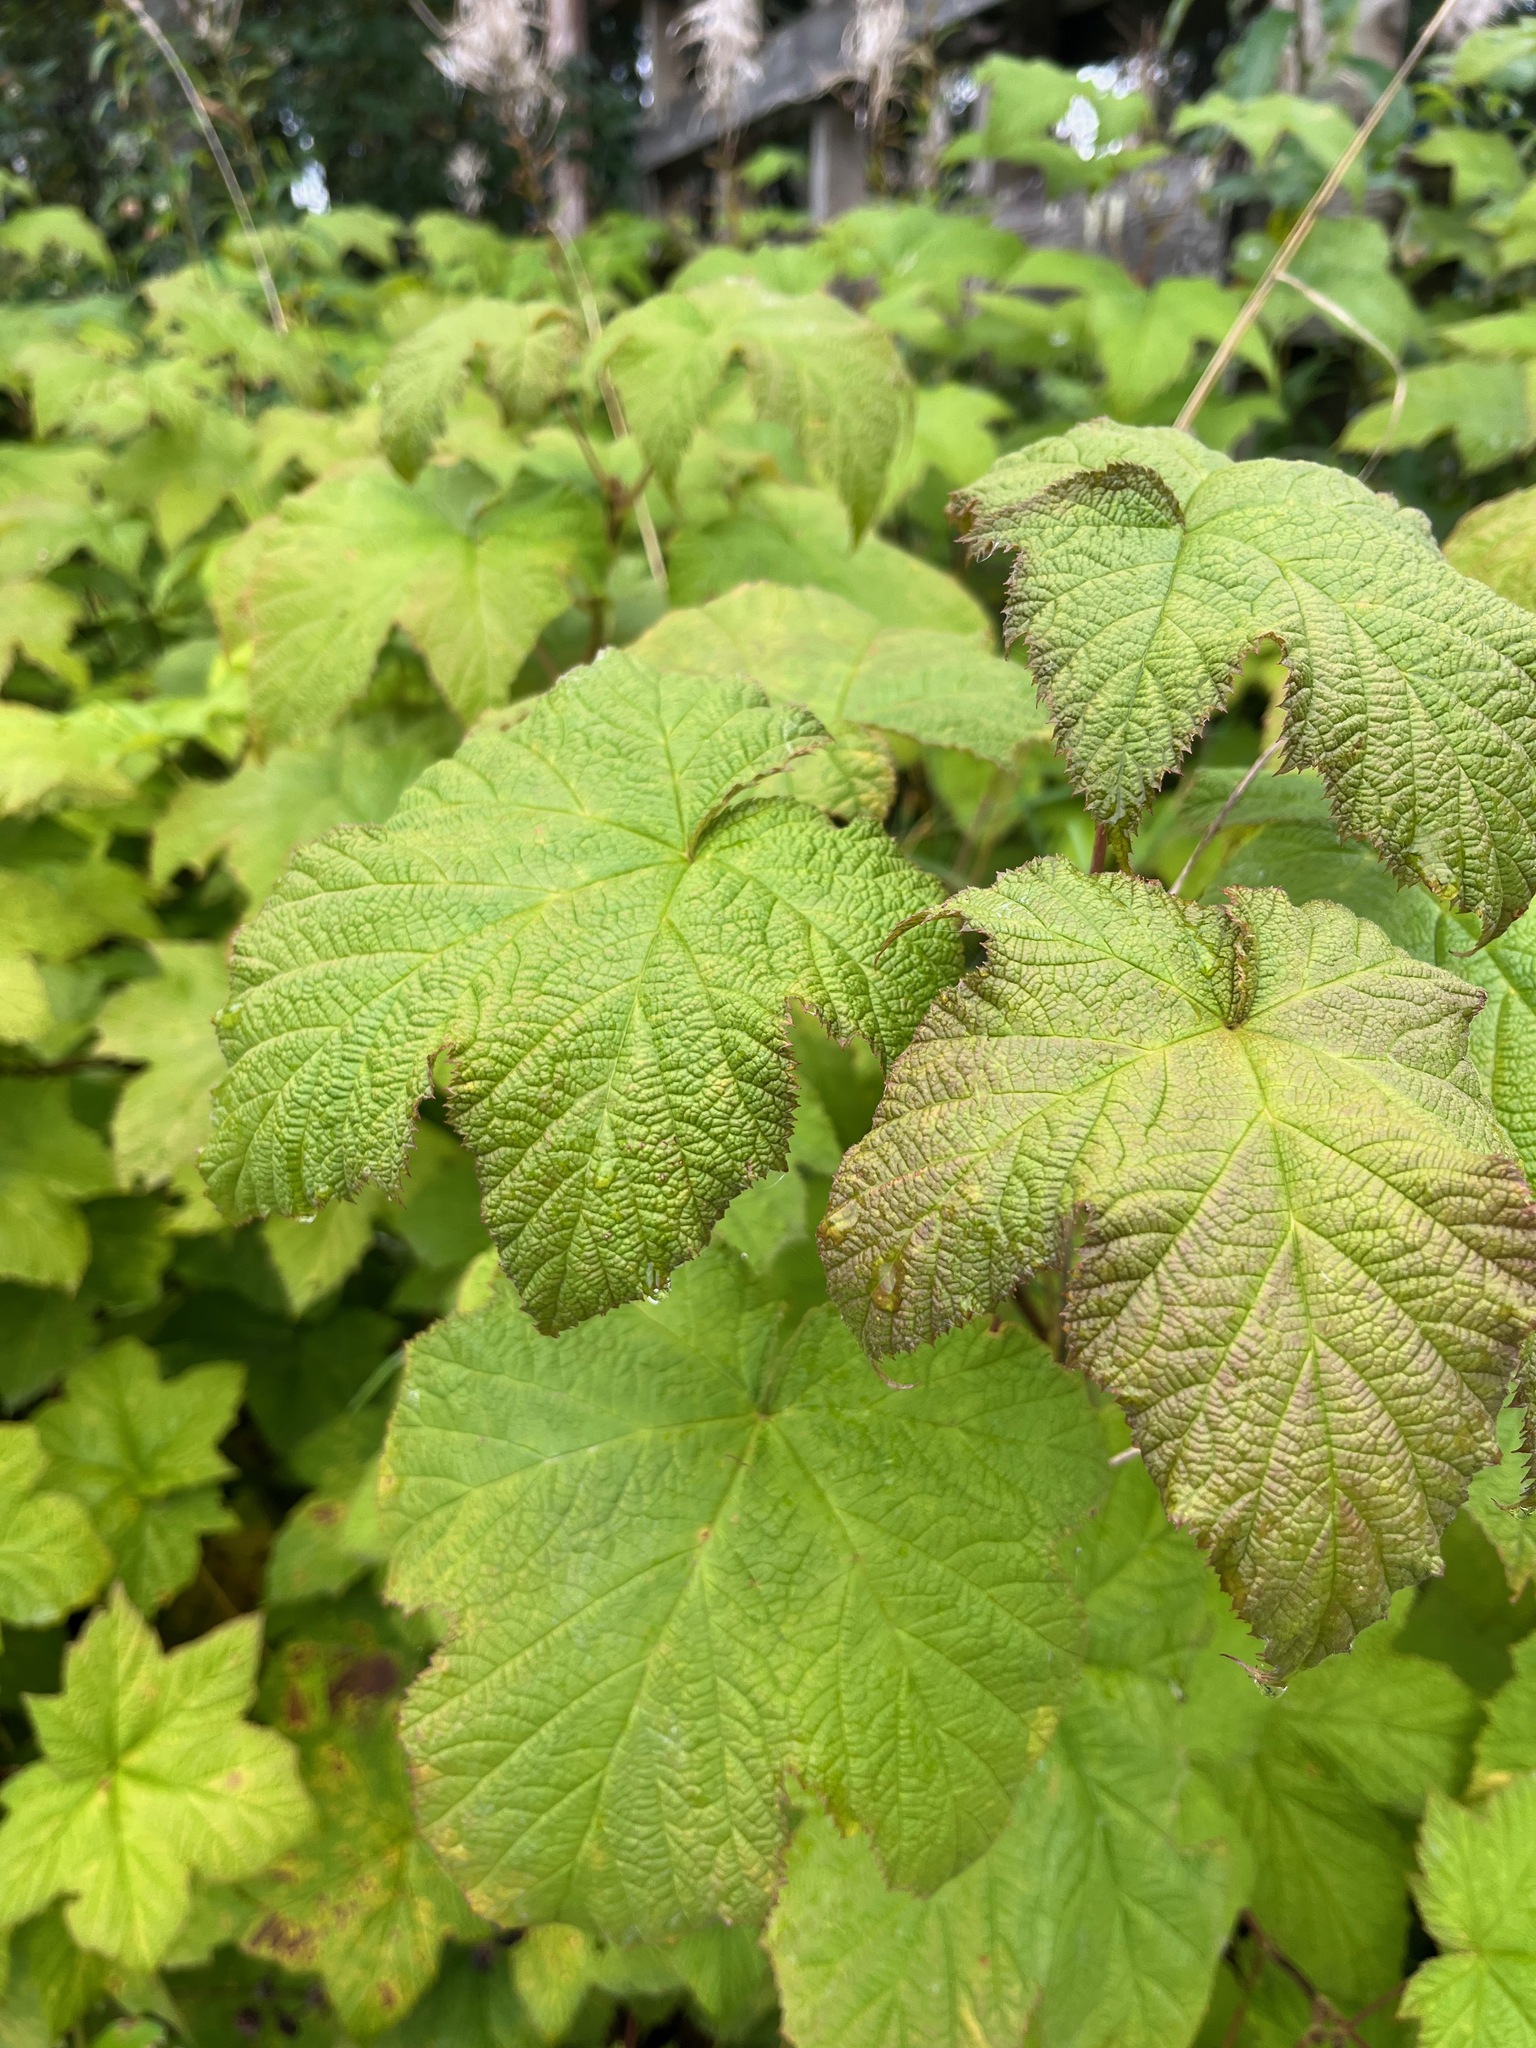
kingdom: Plantae
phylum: Tracheophyta
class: Magnoliopsida
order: Rosales
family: Rosaceae
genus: Rubus
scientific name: Rubus parviflorus
